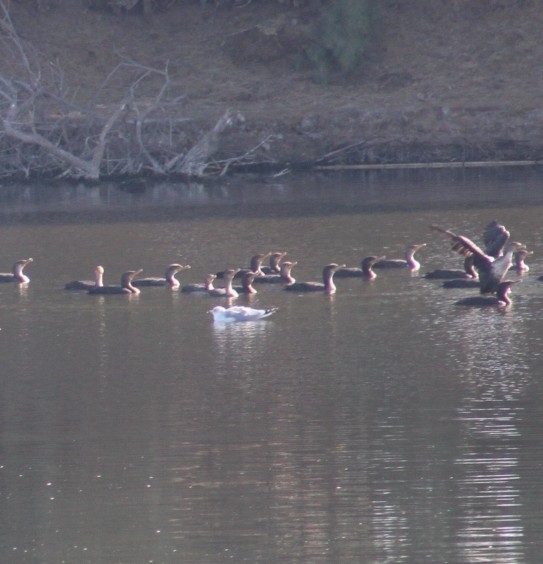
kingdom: Animalia
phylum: Chordata
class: Aves
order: Charadriiformes
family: Laridae
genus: Larus
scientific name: Larus delawarensis
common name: Ring-billed gull
